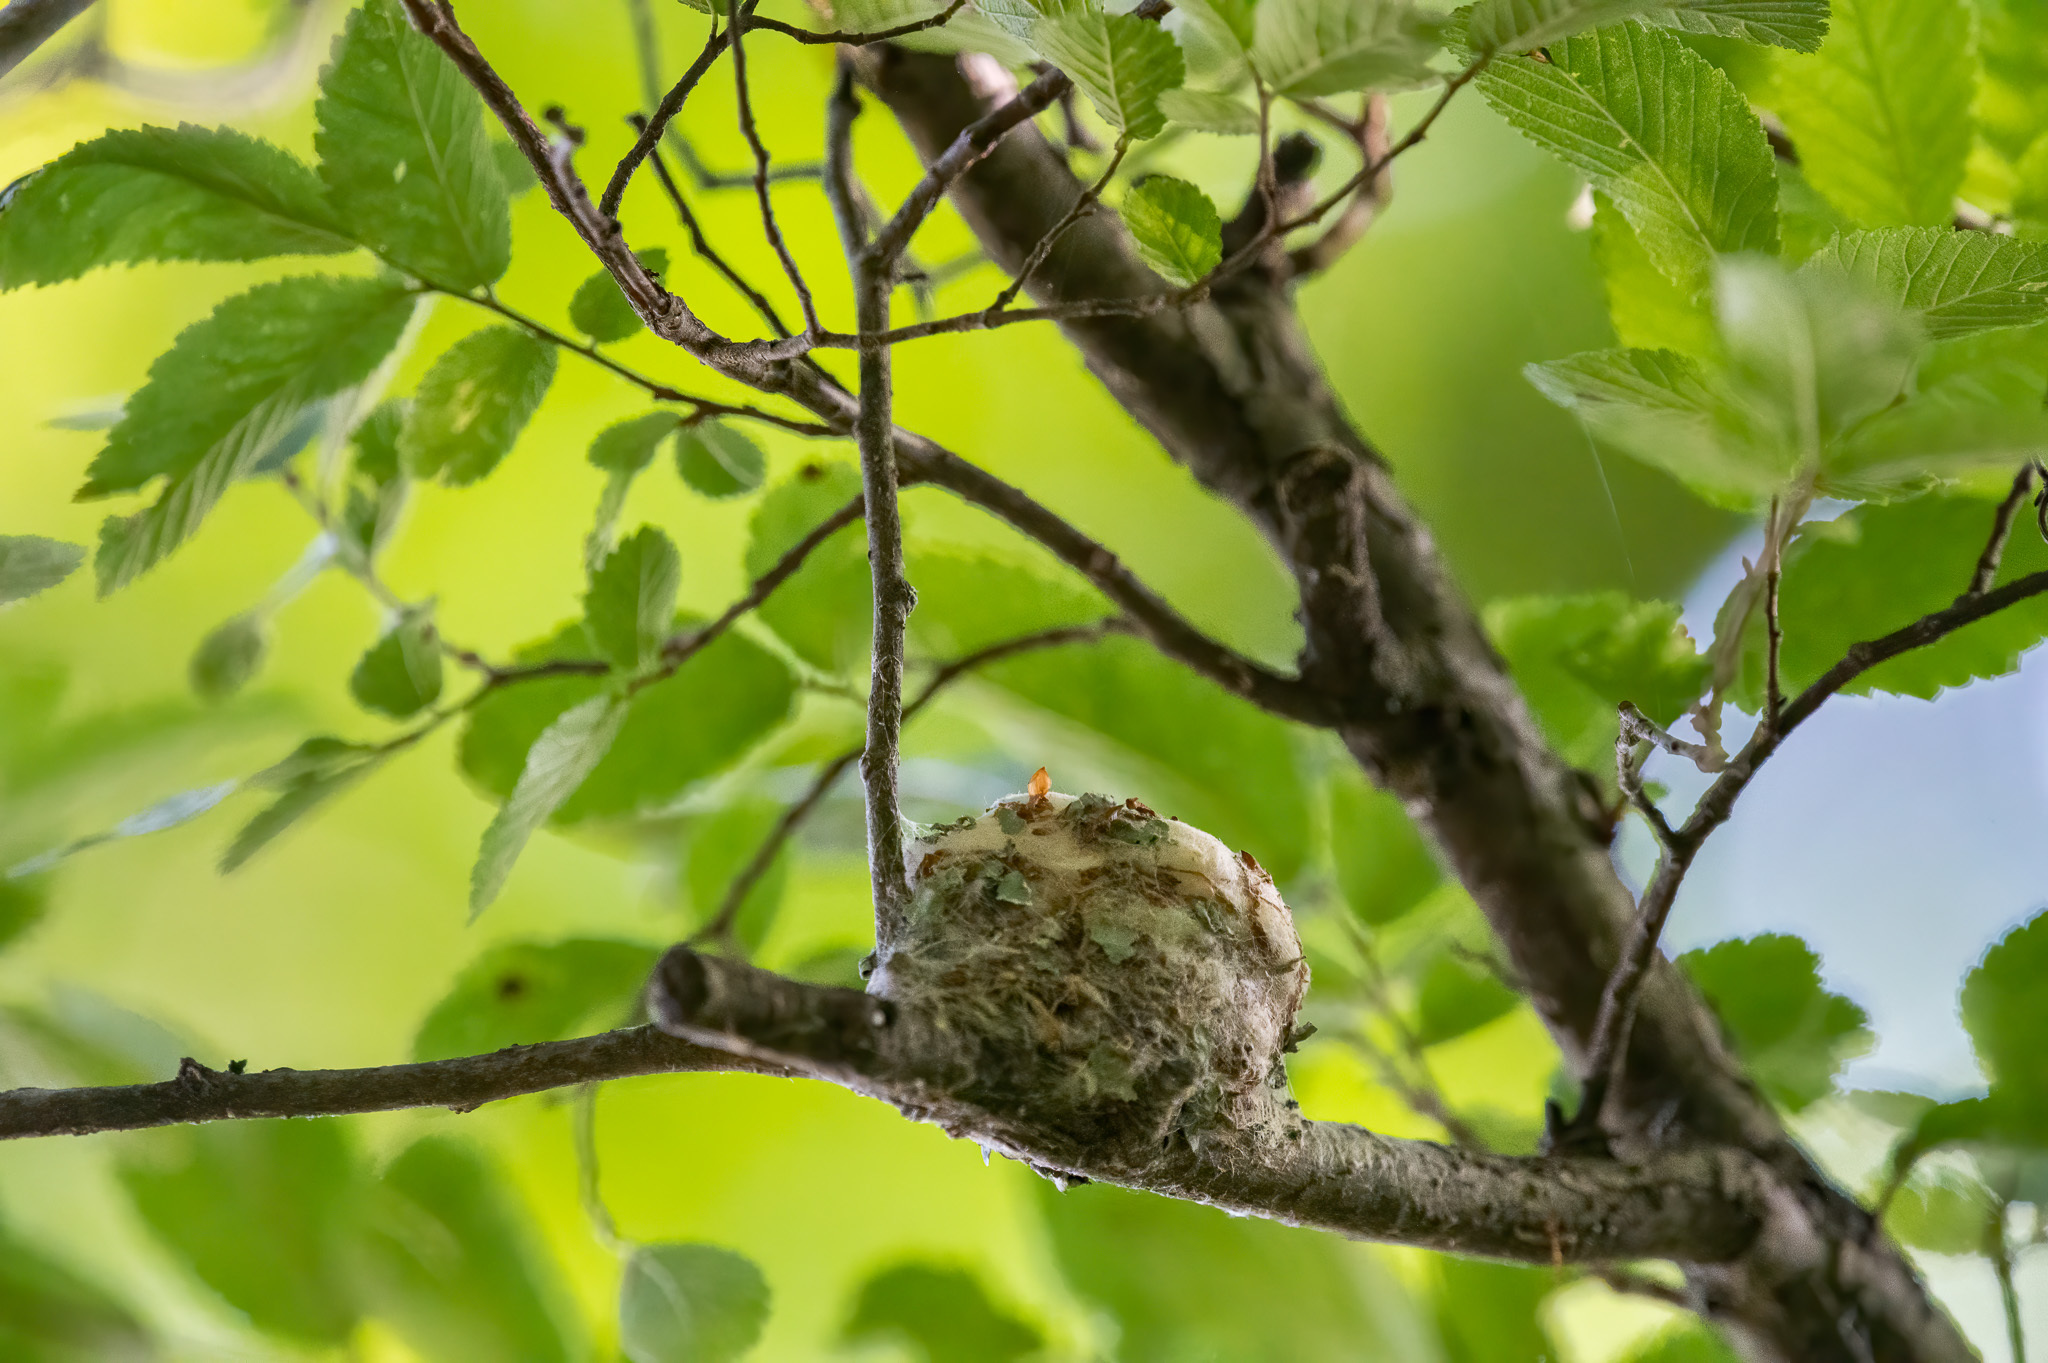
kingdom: Animalia
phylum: Chordata
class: Aves
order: Apodiformes
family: Trochilidae
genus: Archilochus
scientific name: Archilochus colubris
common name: Ruby-throated hummingbird
